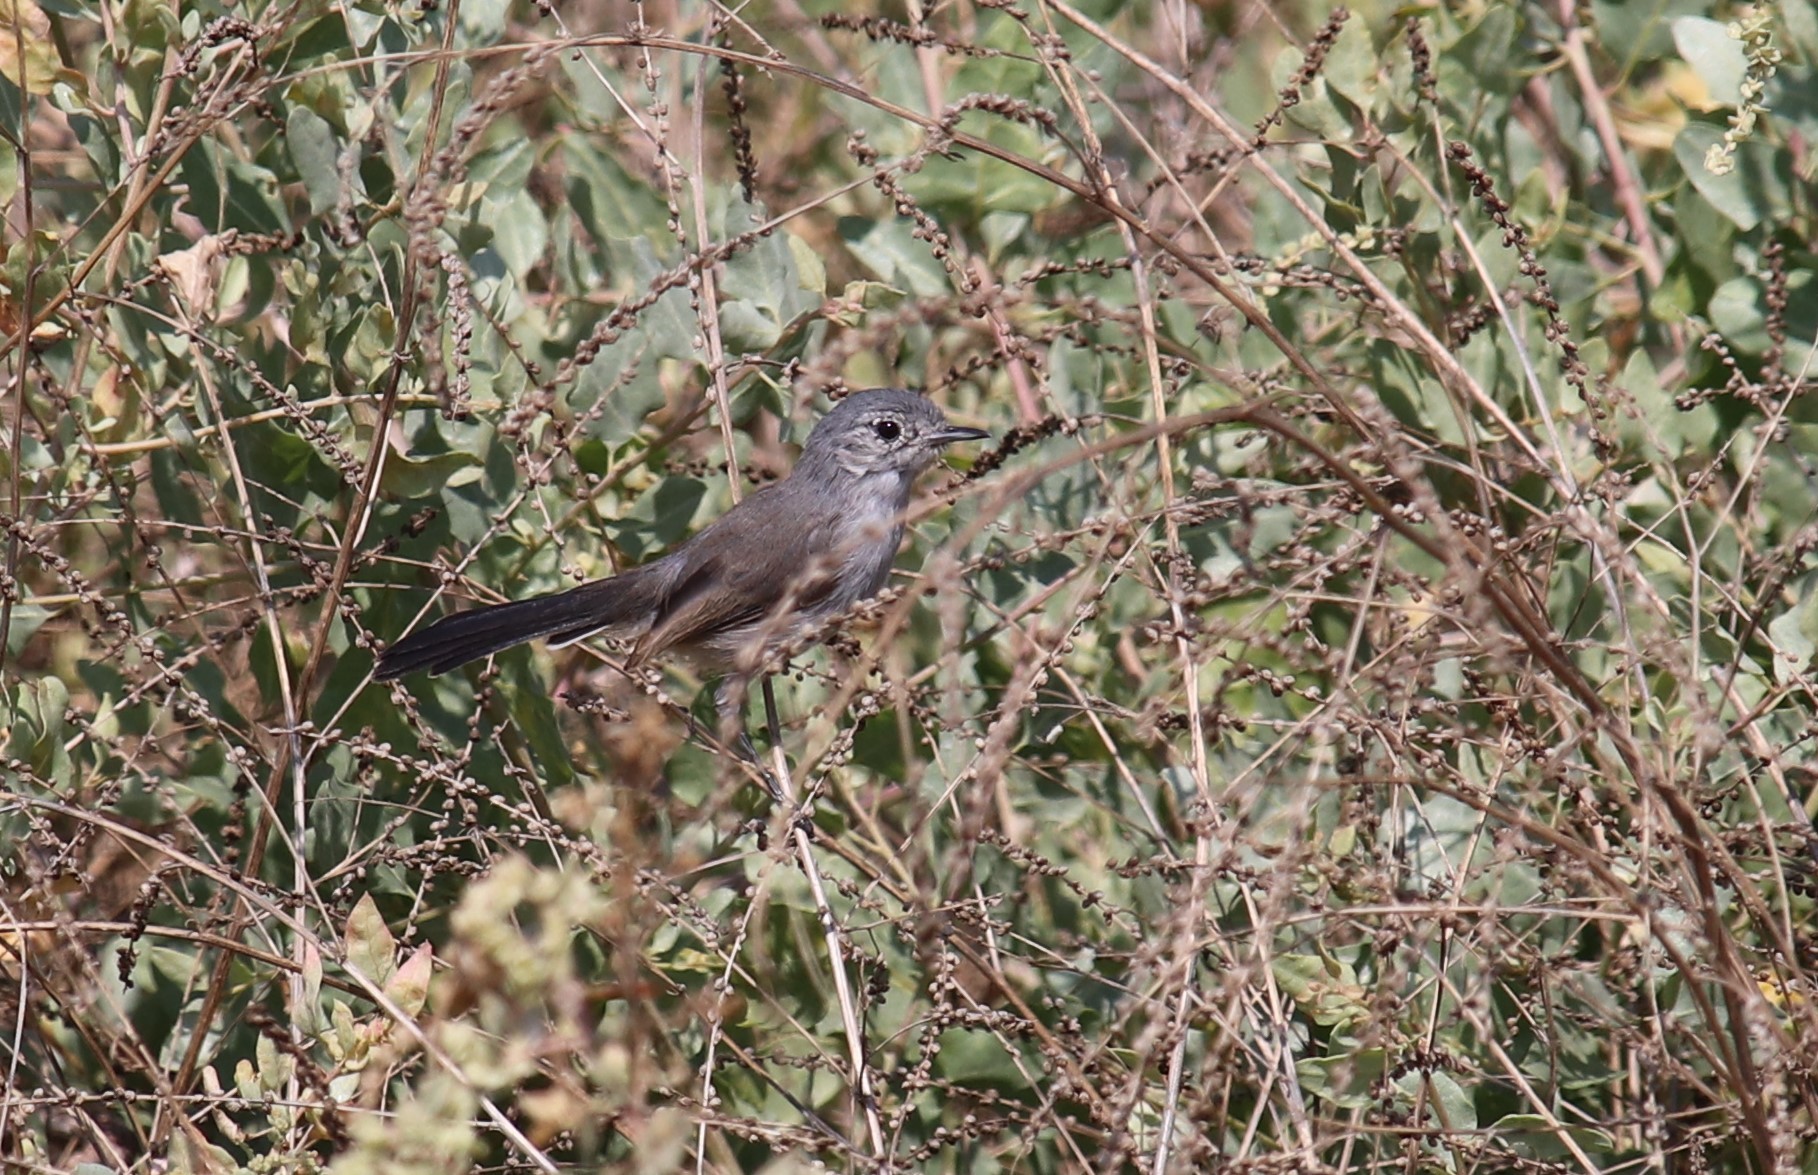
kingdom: Animalia
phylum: Chordata
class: Aves
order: Passeriformes
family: Polioptilidae
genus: Polioptila
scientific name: Polioptila californica
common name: California gnatcatcher
